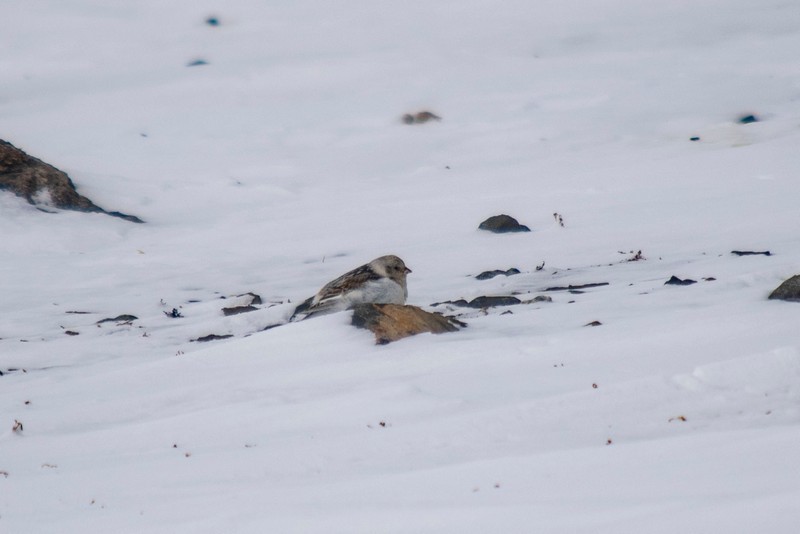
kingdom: Animalia
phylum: Chordata
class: Aves
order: Passeriformes
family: Calcariidae
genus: Plectrophenax
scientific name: Plectrophenax nivalis
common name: Snow bunting
